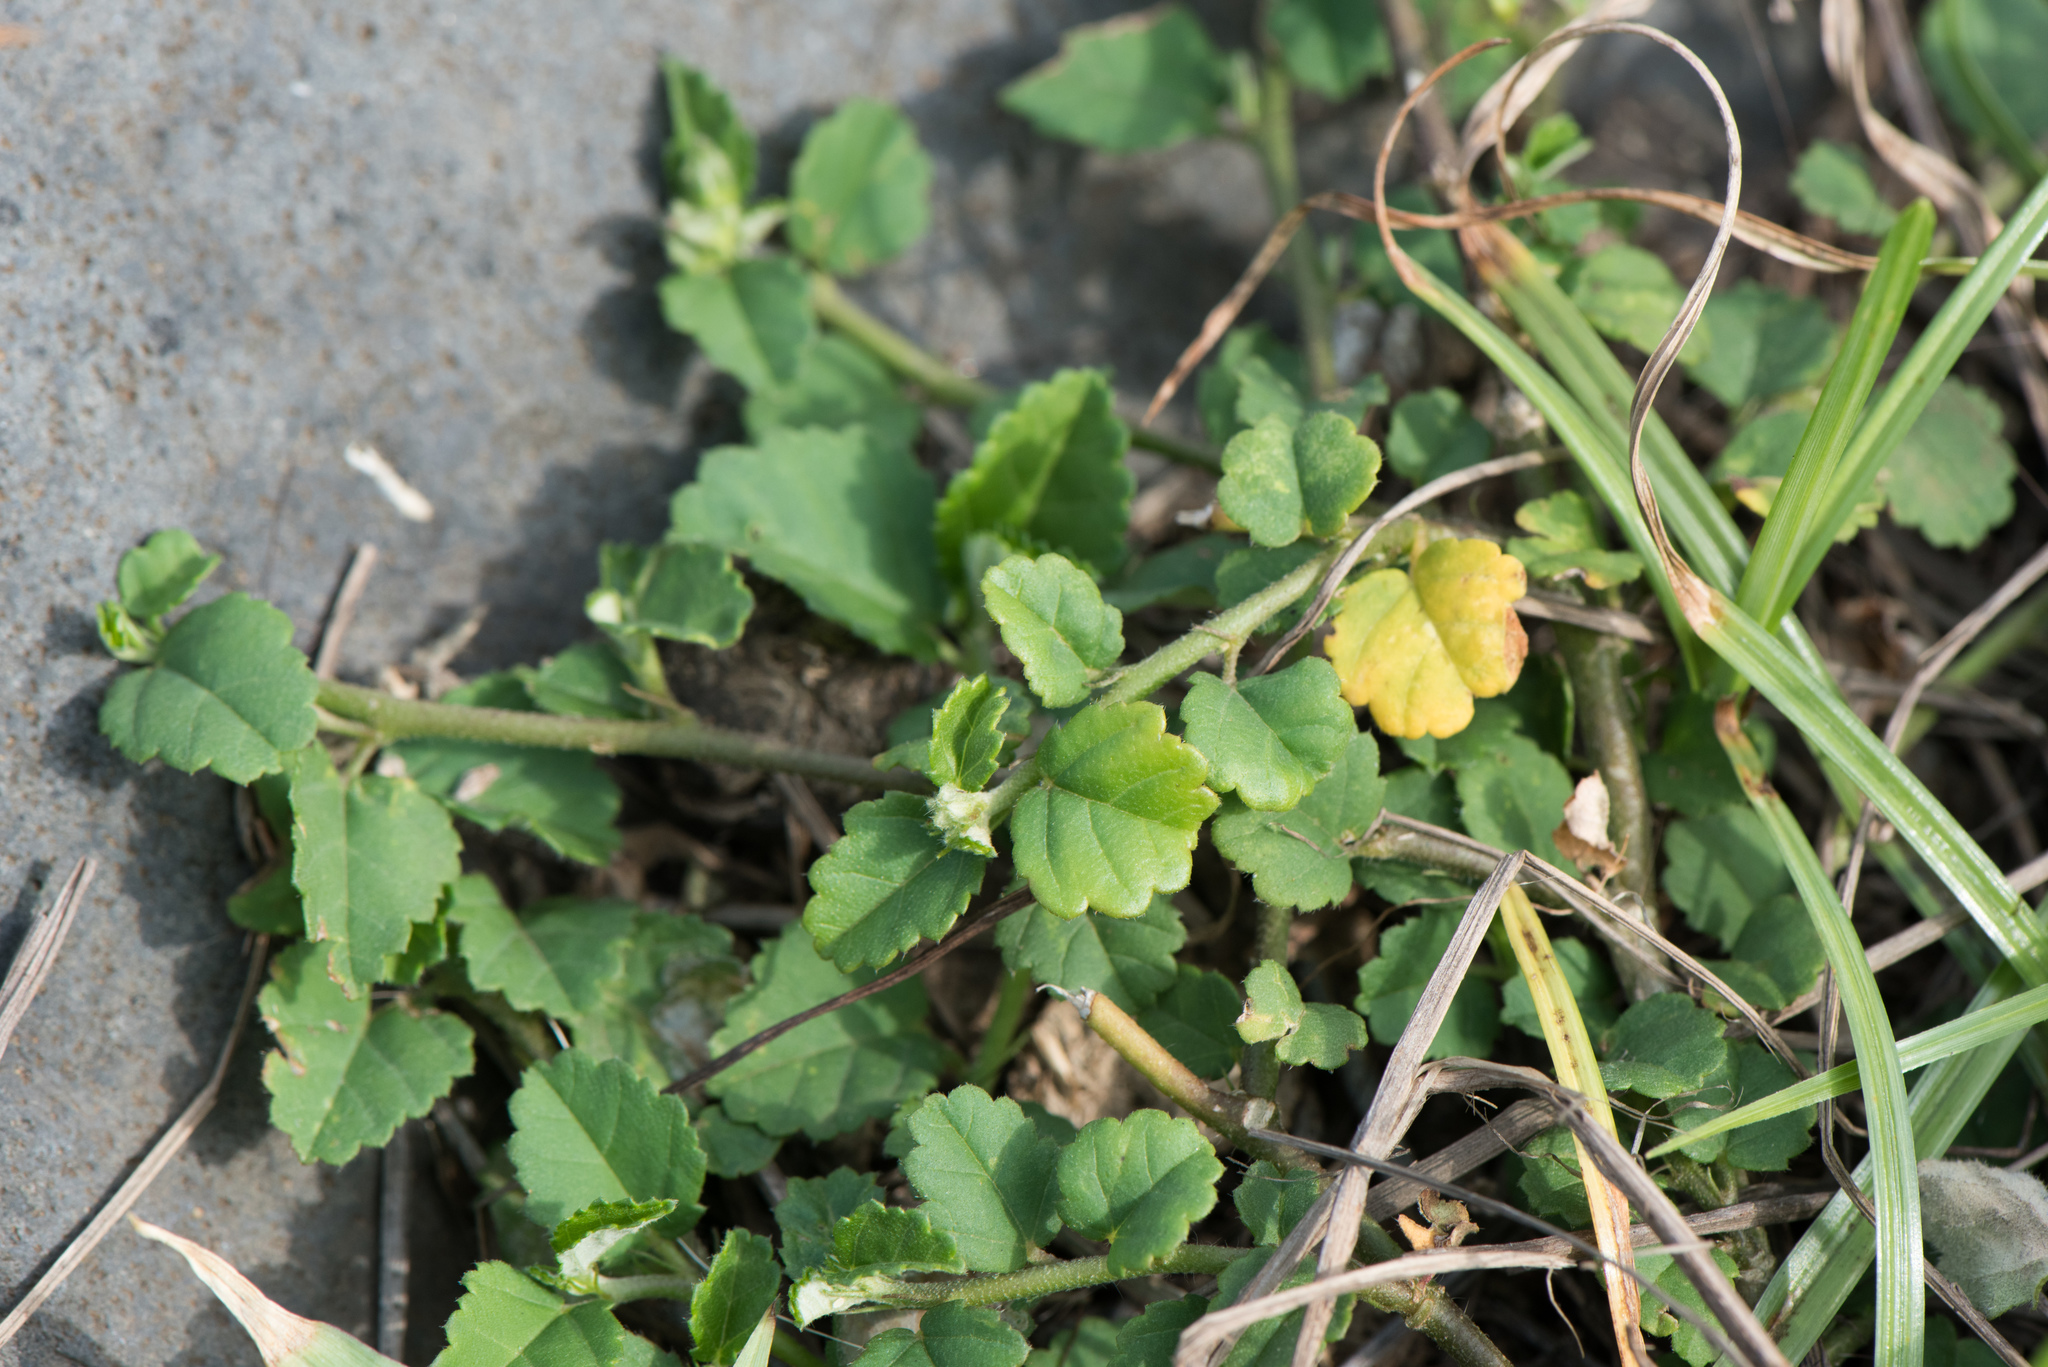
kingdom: Plantae
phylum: Tracheophyta
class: Magnoliopsida
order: Malvales
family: Malvaceae
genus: Sida
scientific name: Sida rhombifolia
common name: Queensland-hemp
